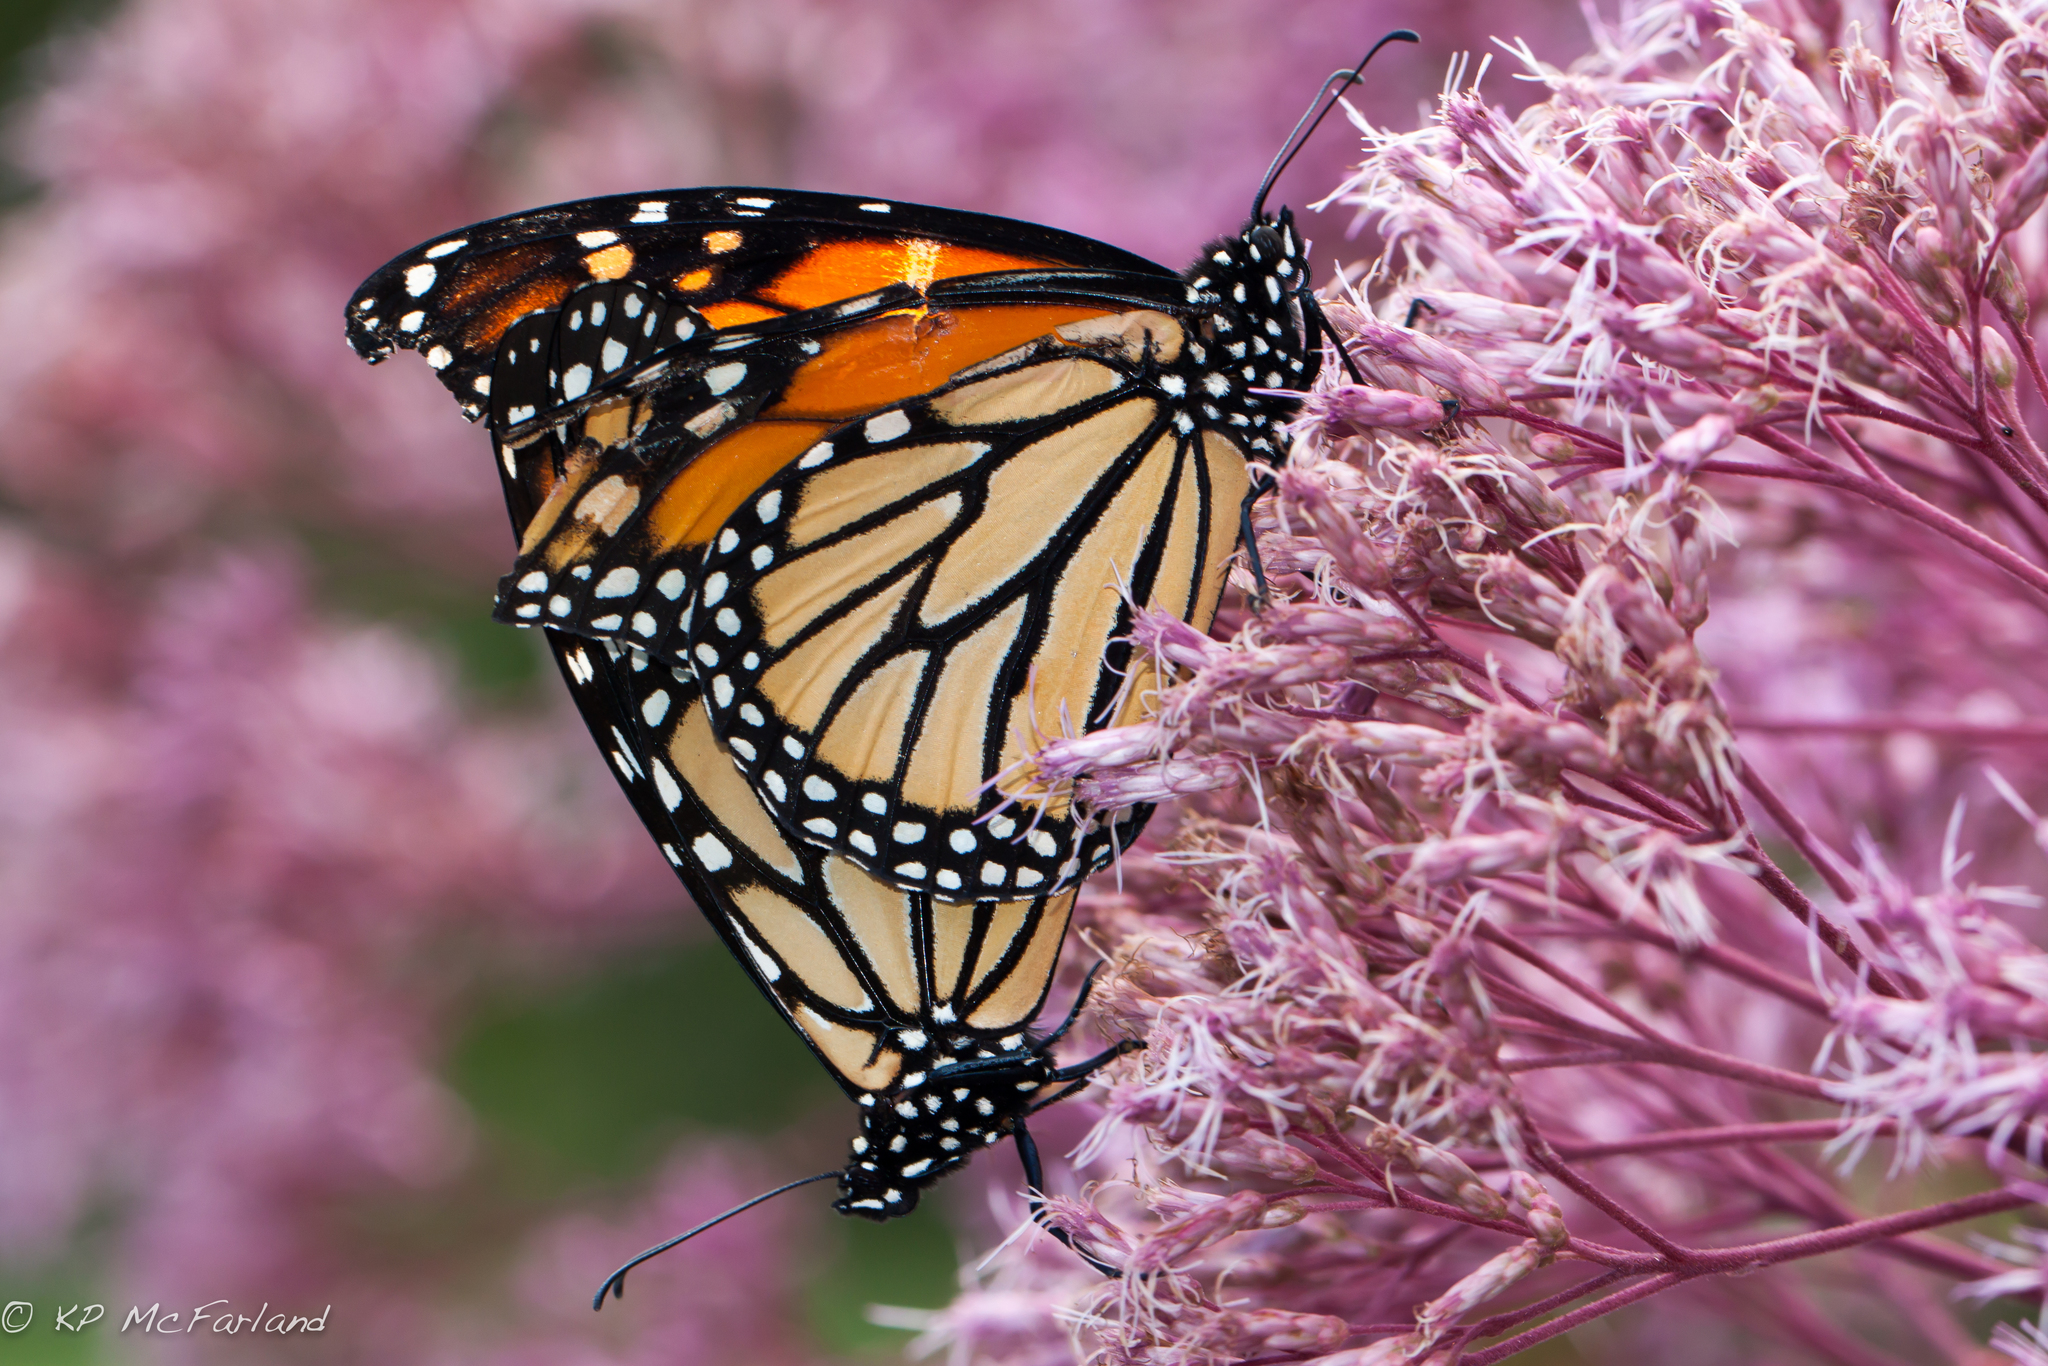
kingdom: Animalia
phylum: Arthropoda
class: Insecta
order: Lepidoptera
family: Nymphalidae
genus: Danaus
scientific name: Danaus plexippus
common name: Monarch
